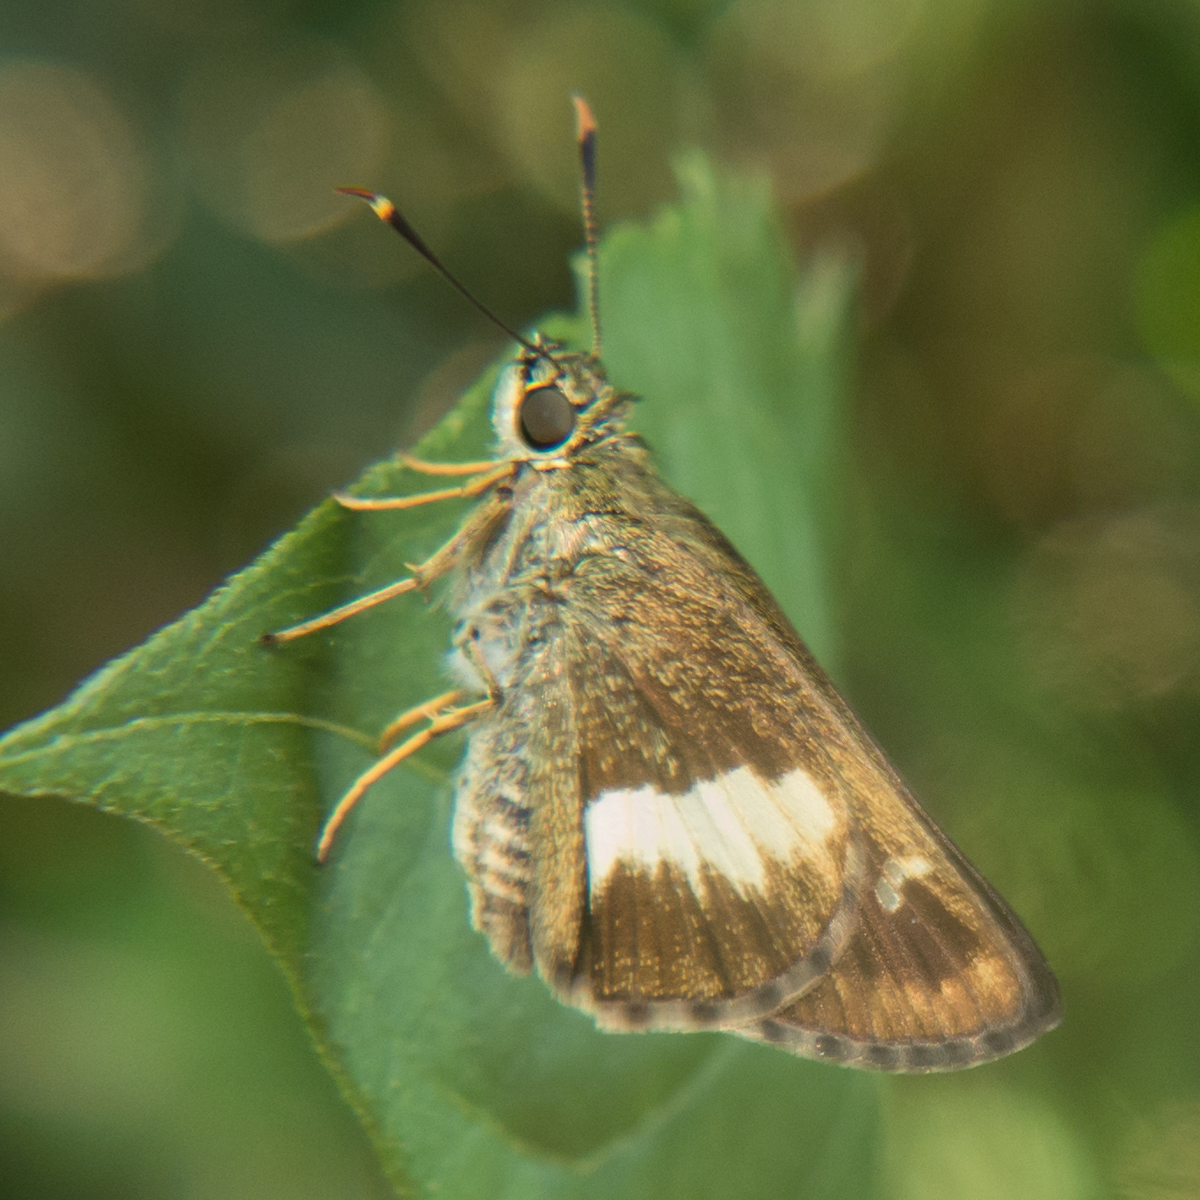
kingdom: Animalia
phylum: Arthropoda
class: Insecta
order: Lepidoptera
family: Hesperiidae
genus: Halpe
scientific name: Halpe zola
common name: Long-banded ace
